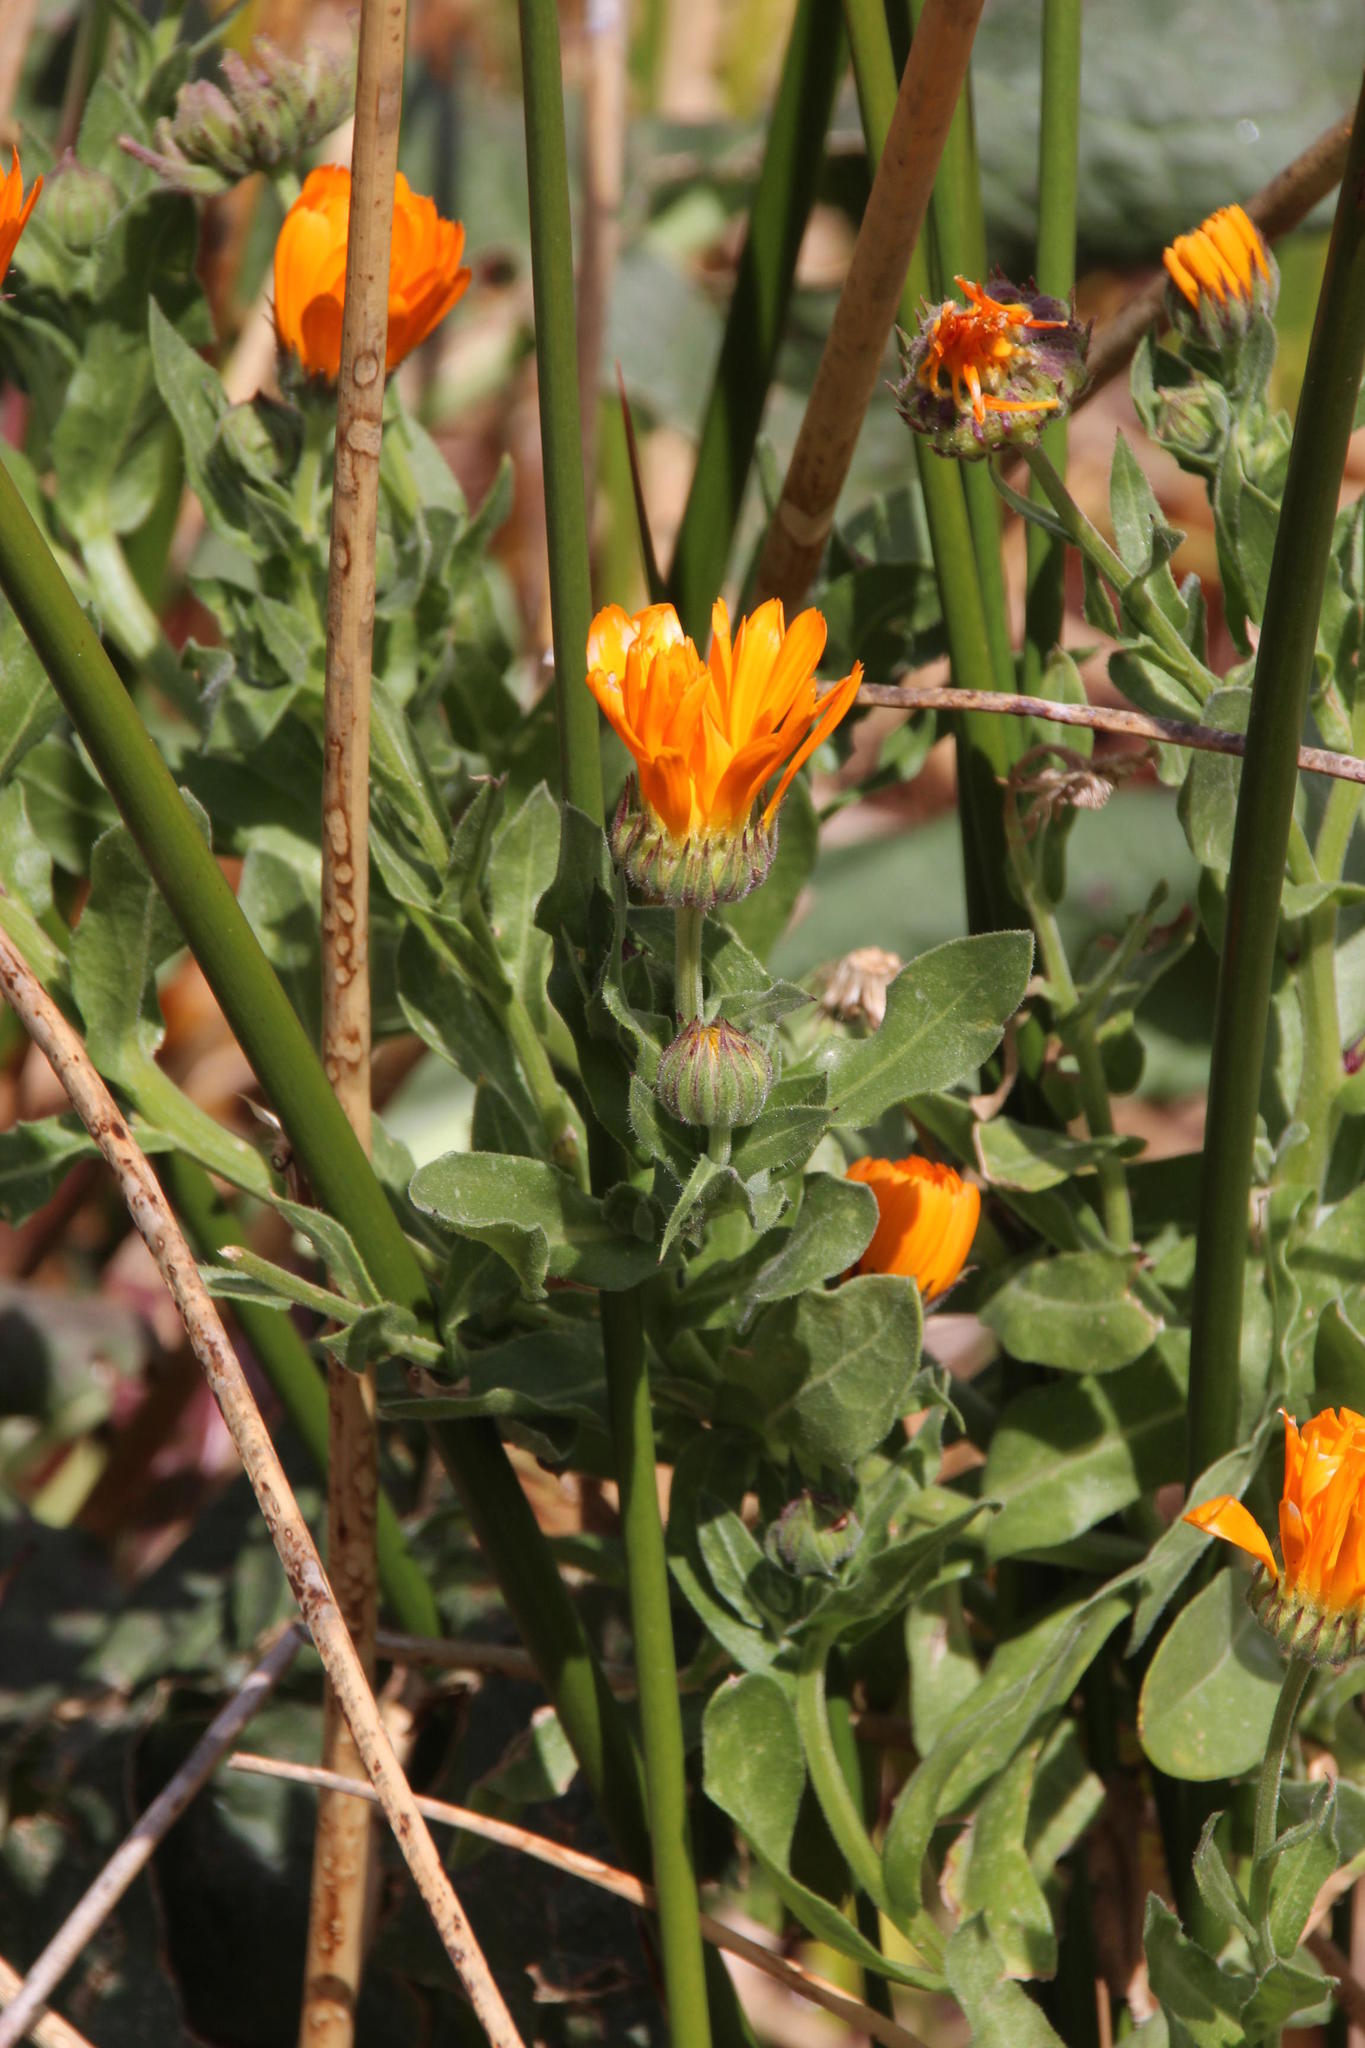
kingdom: Plantae
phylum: Tracheophyta
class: Magnoliopsida
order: Asterales
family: Asteraceae
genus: Calendula
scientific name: Calendula officinalis
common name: Pot marigold
